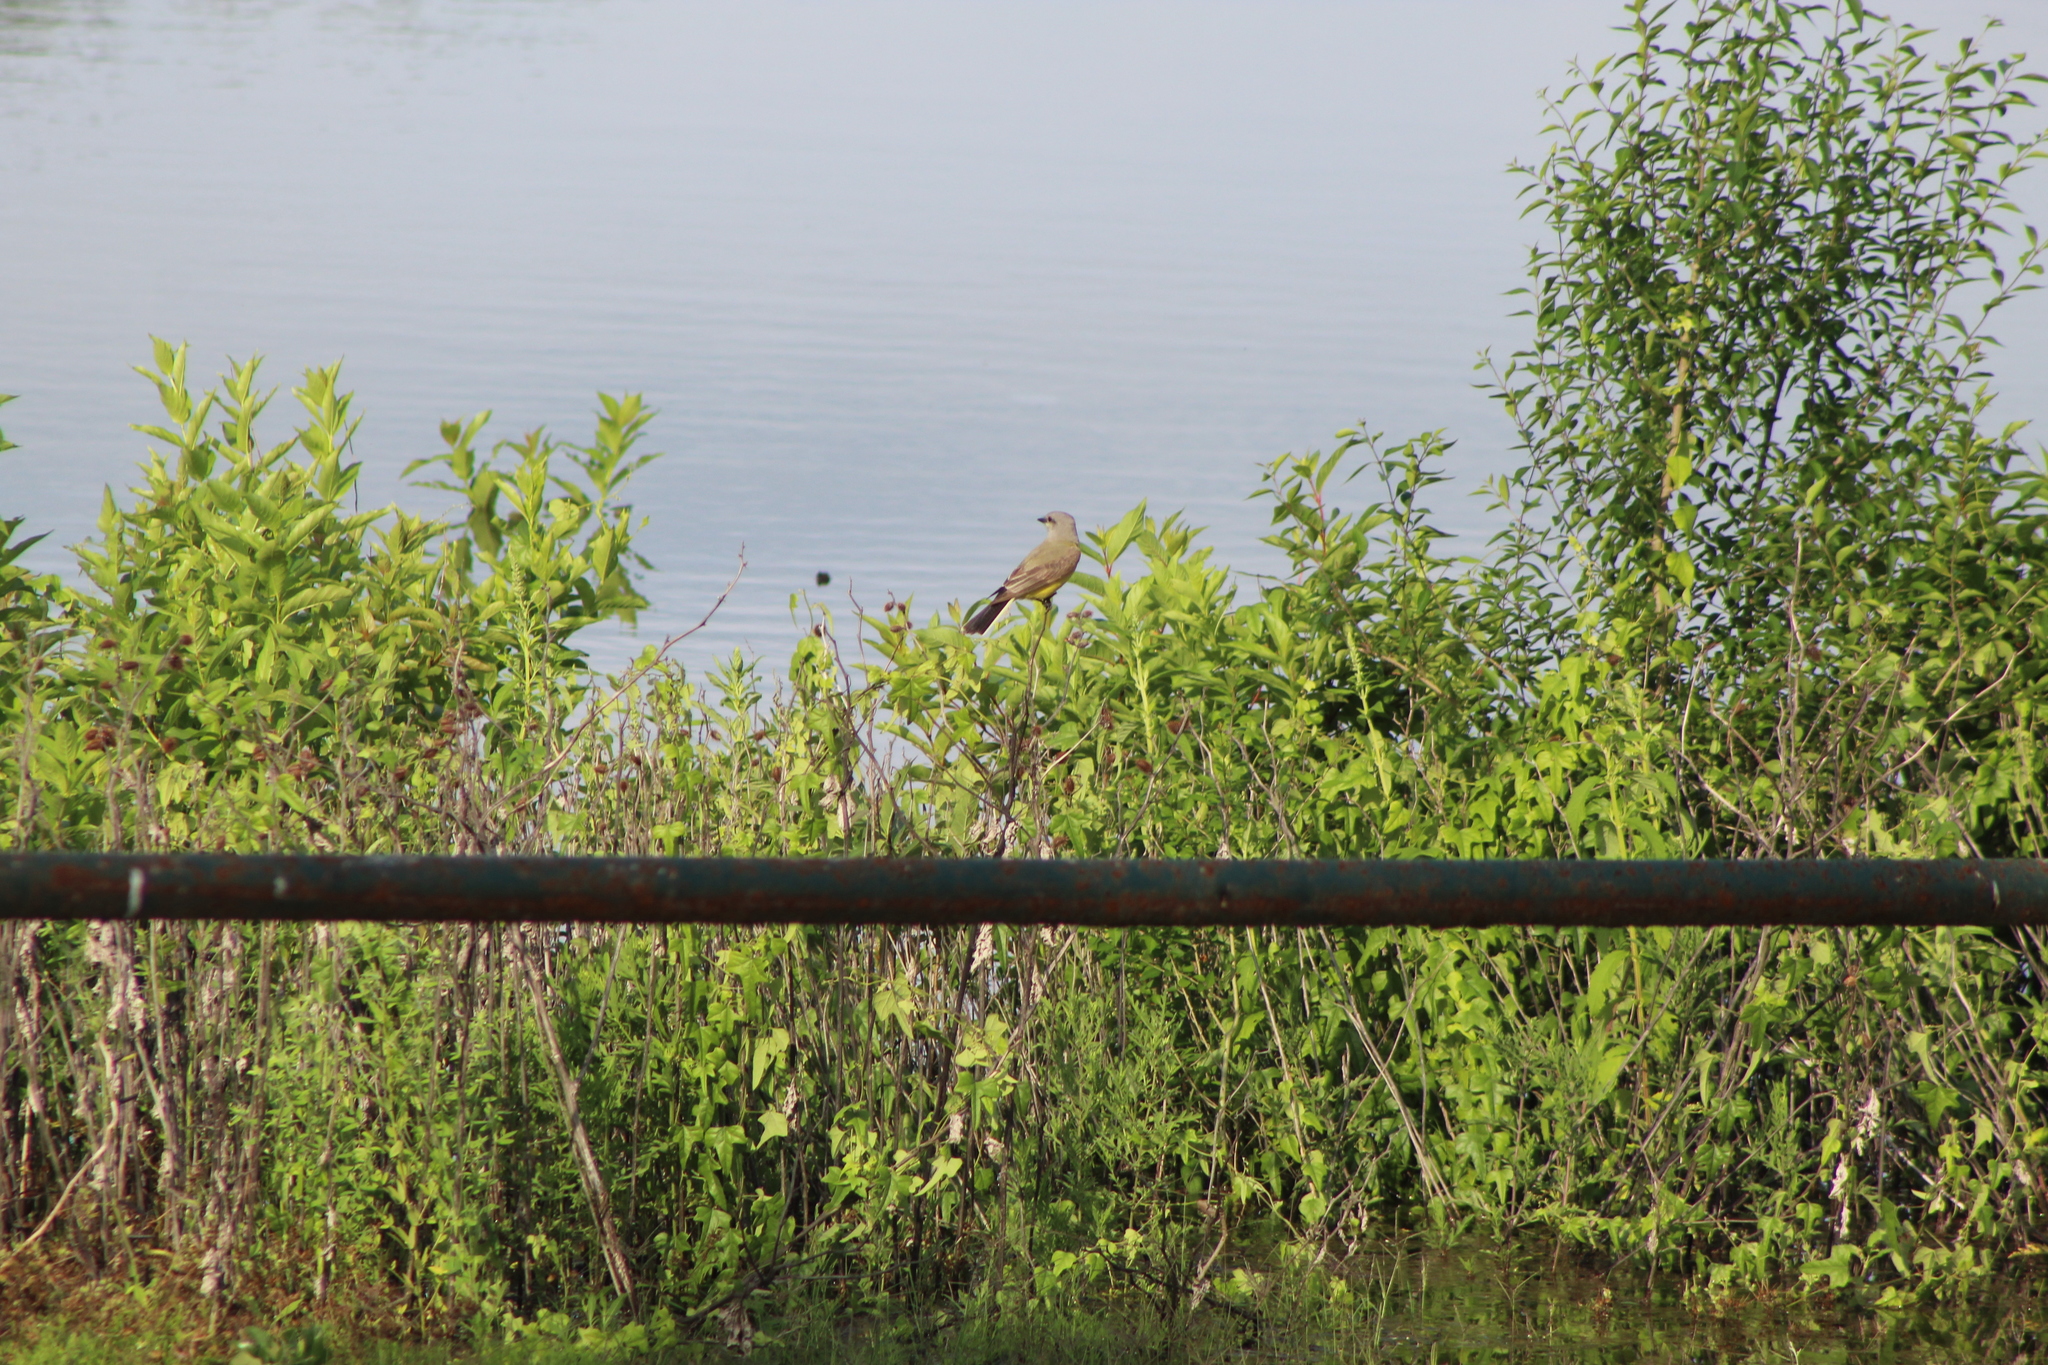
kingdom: Animalia
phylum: Chordata
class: Aves
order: Passeriformes
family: Tyrannidae
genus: Tyrannus
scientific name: Tyrannus verticalis
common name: Western kingbird
